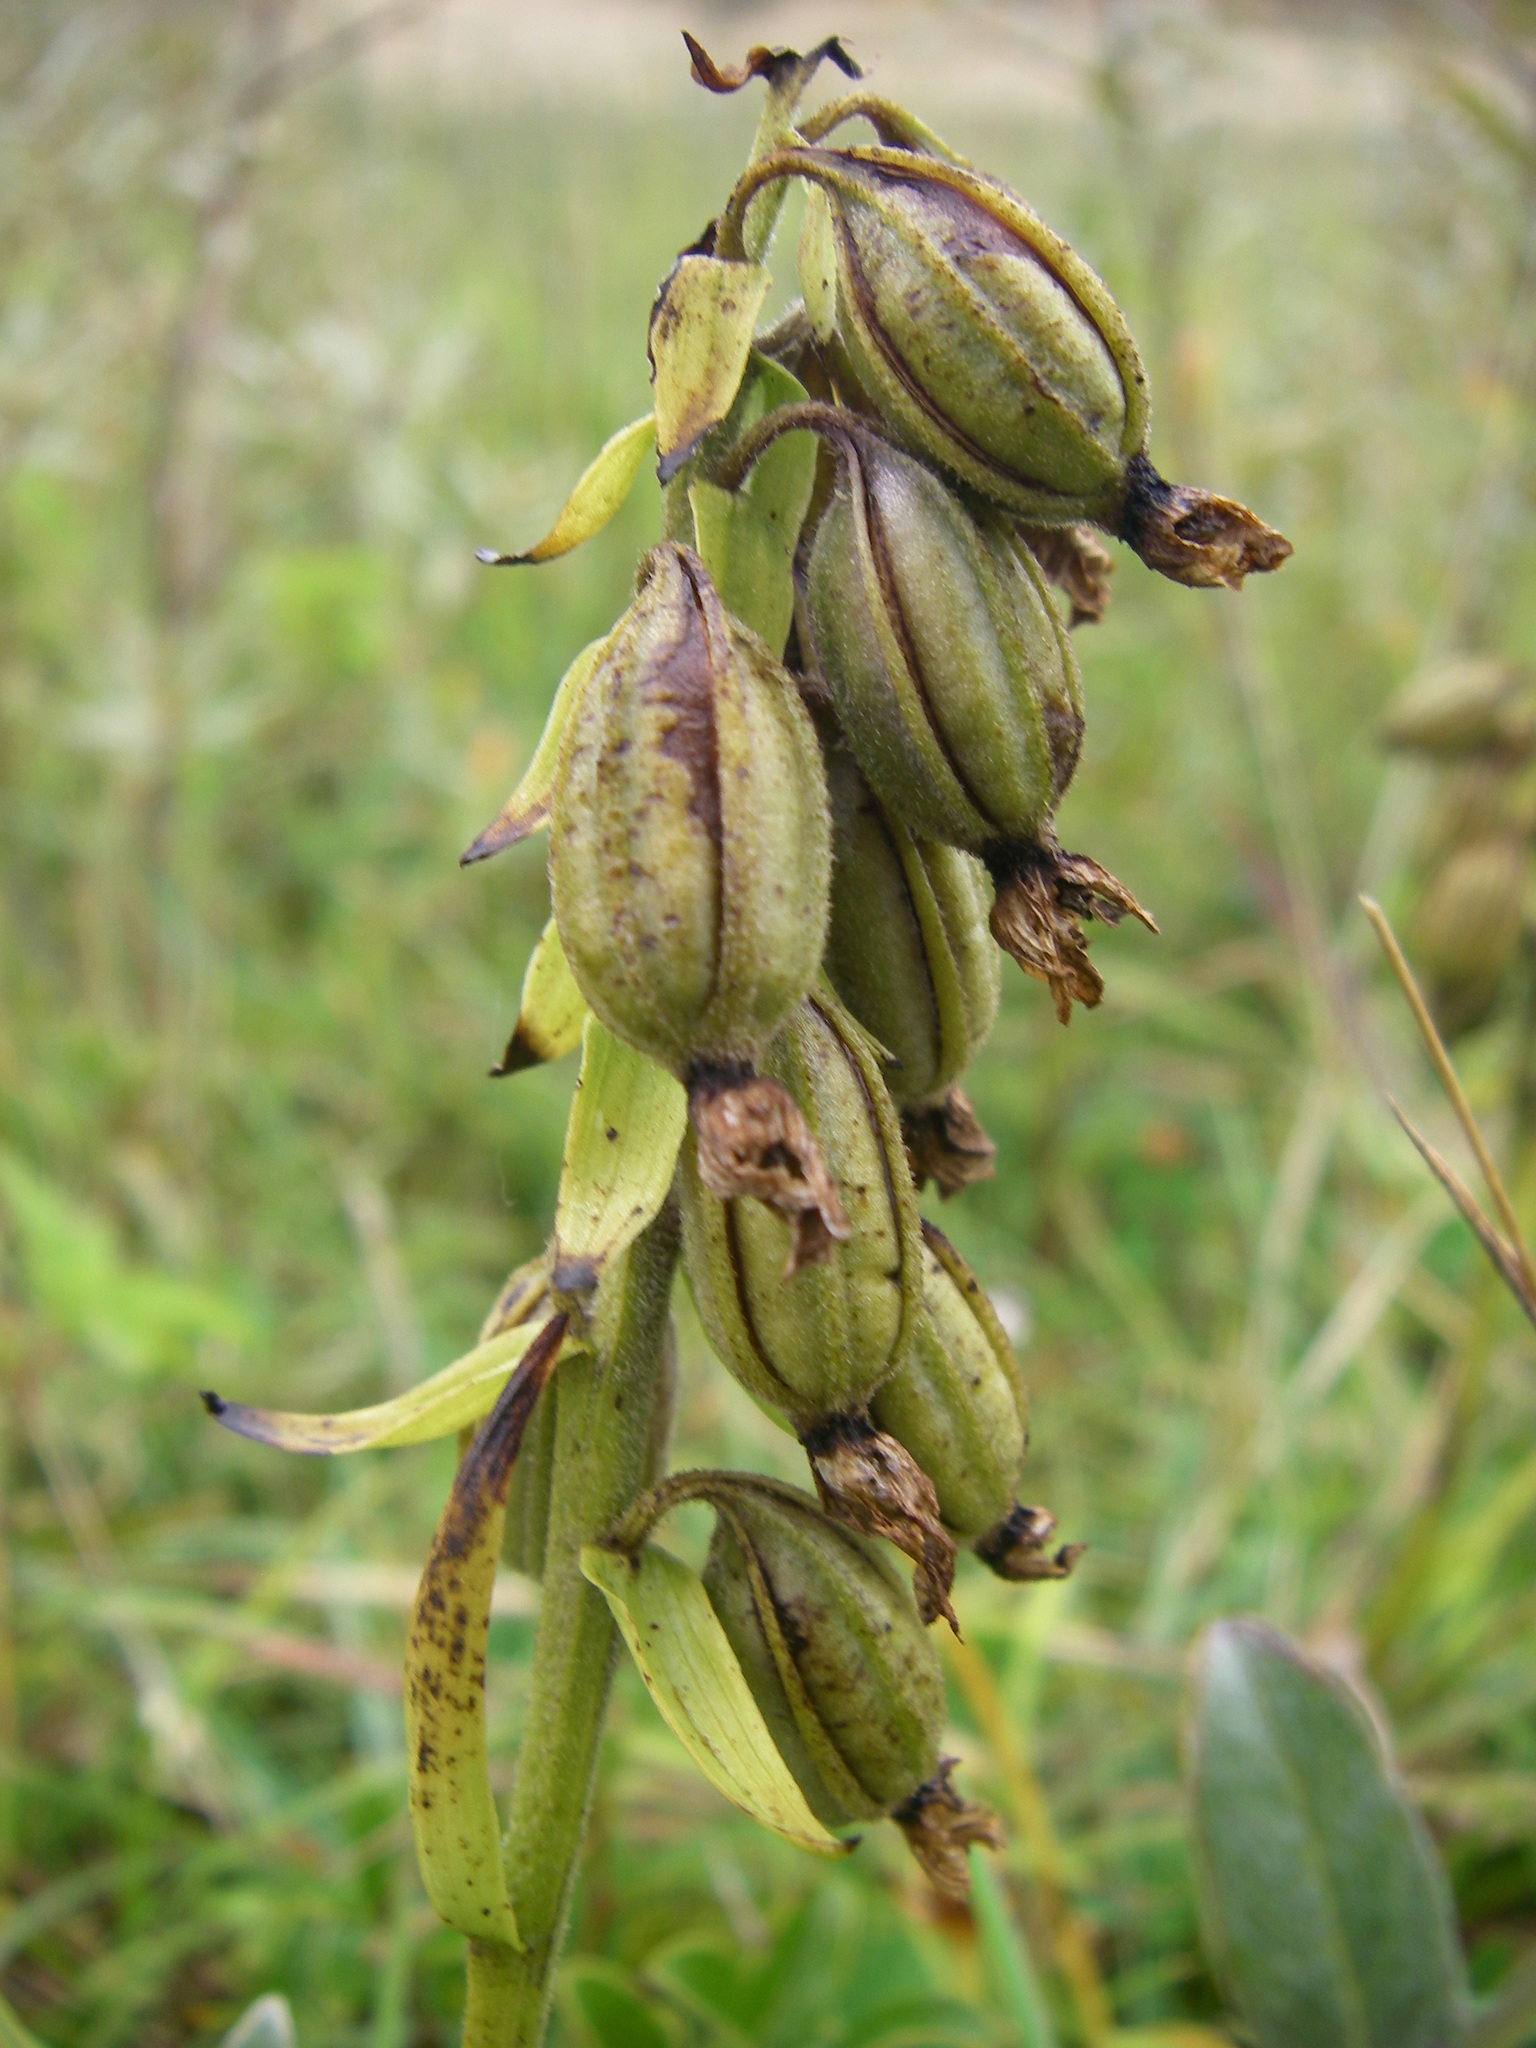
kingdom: Plantae
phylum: Tracheophyta
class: Liliopsida
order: Asparagales
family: Orchidaceae
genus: Epipactis
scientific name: Epipactis palustris
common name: Marsh helleborine
